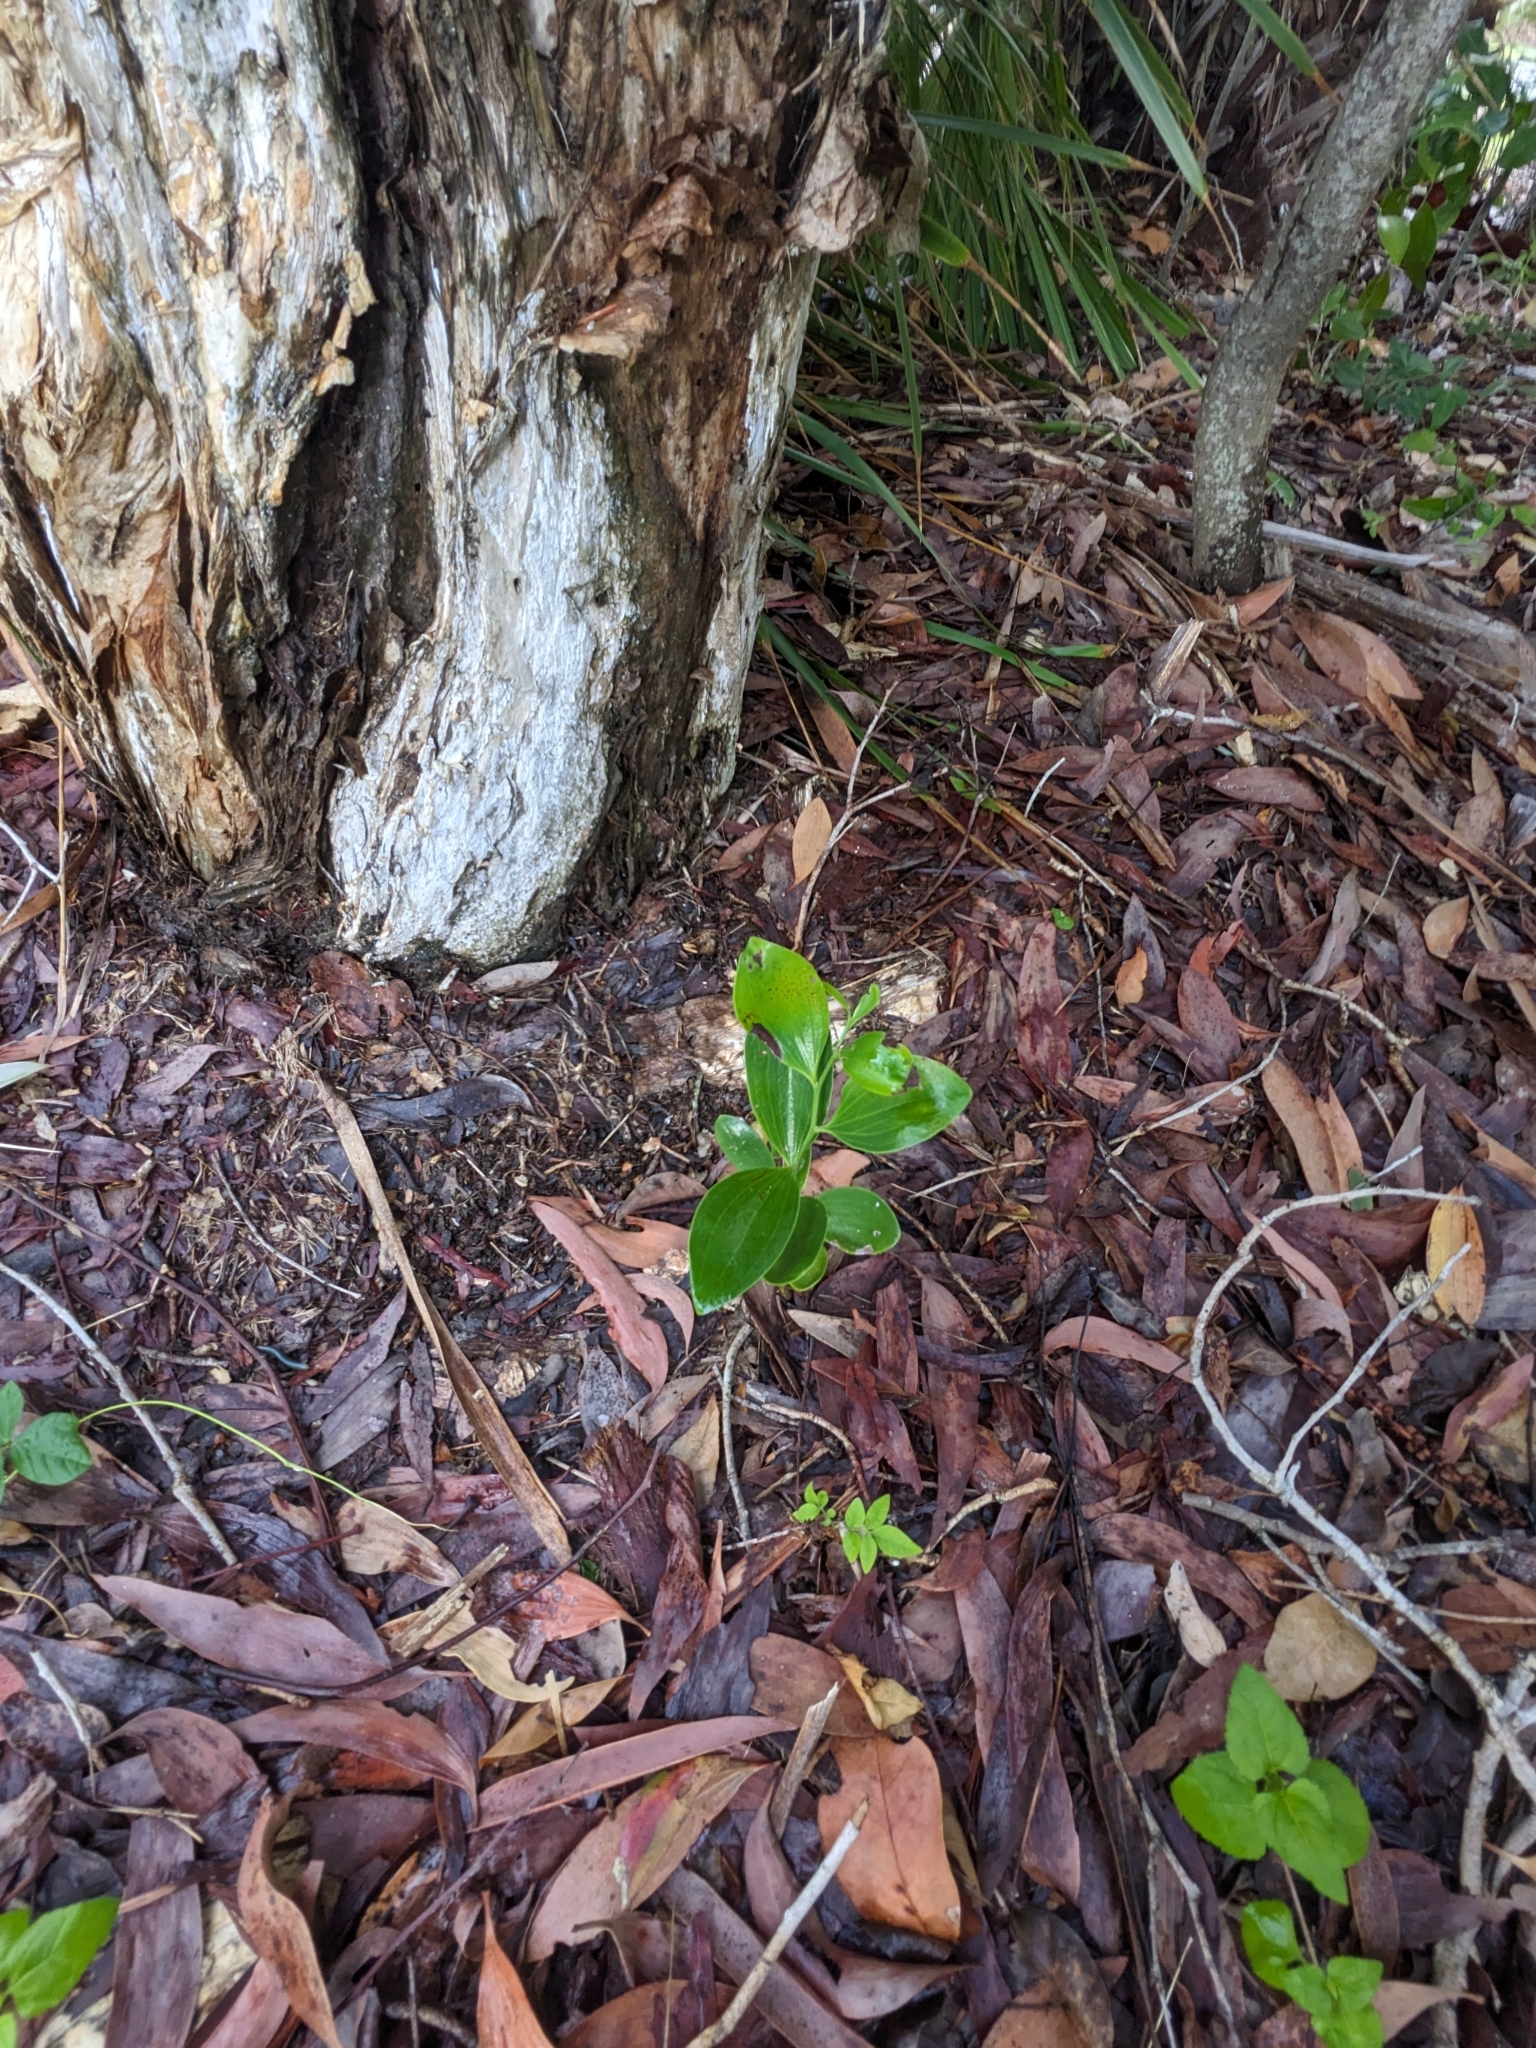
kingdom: Plantae
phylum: Tracheophyta
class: Magnoliopsida
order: Santalales
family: Santalaceae
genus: Exocarpos
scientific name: Exocarpos latifolius
